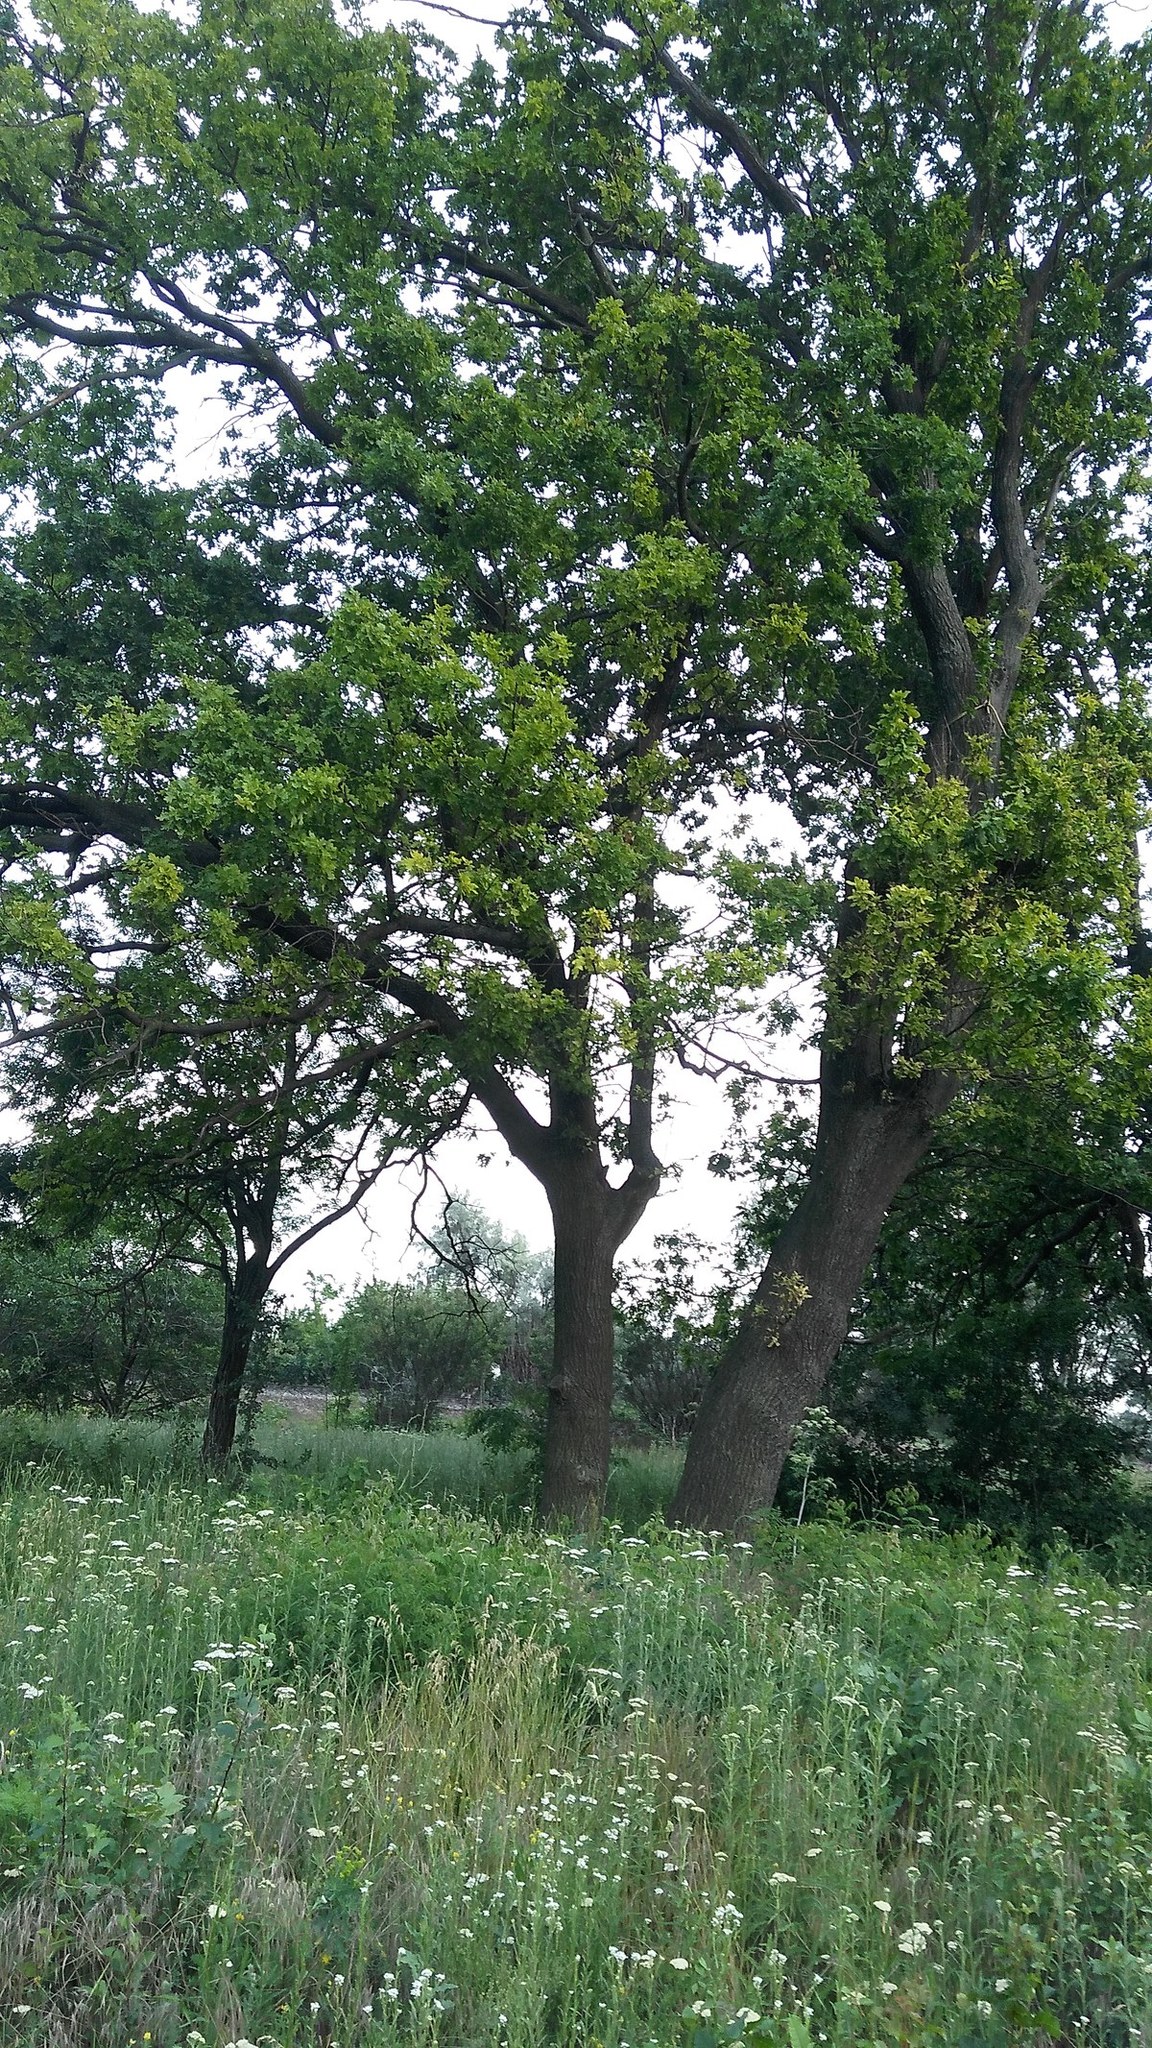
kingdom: Plantae
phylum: Tracheophyta
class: Magnoliopsida
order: Fagales
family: Fagaceae
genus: Quercus
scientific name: Quercus robur
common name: Pedunculate oak
